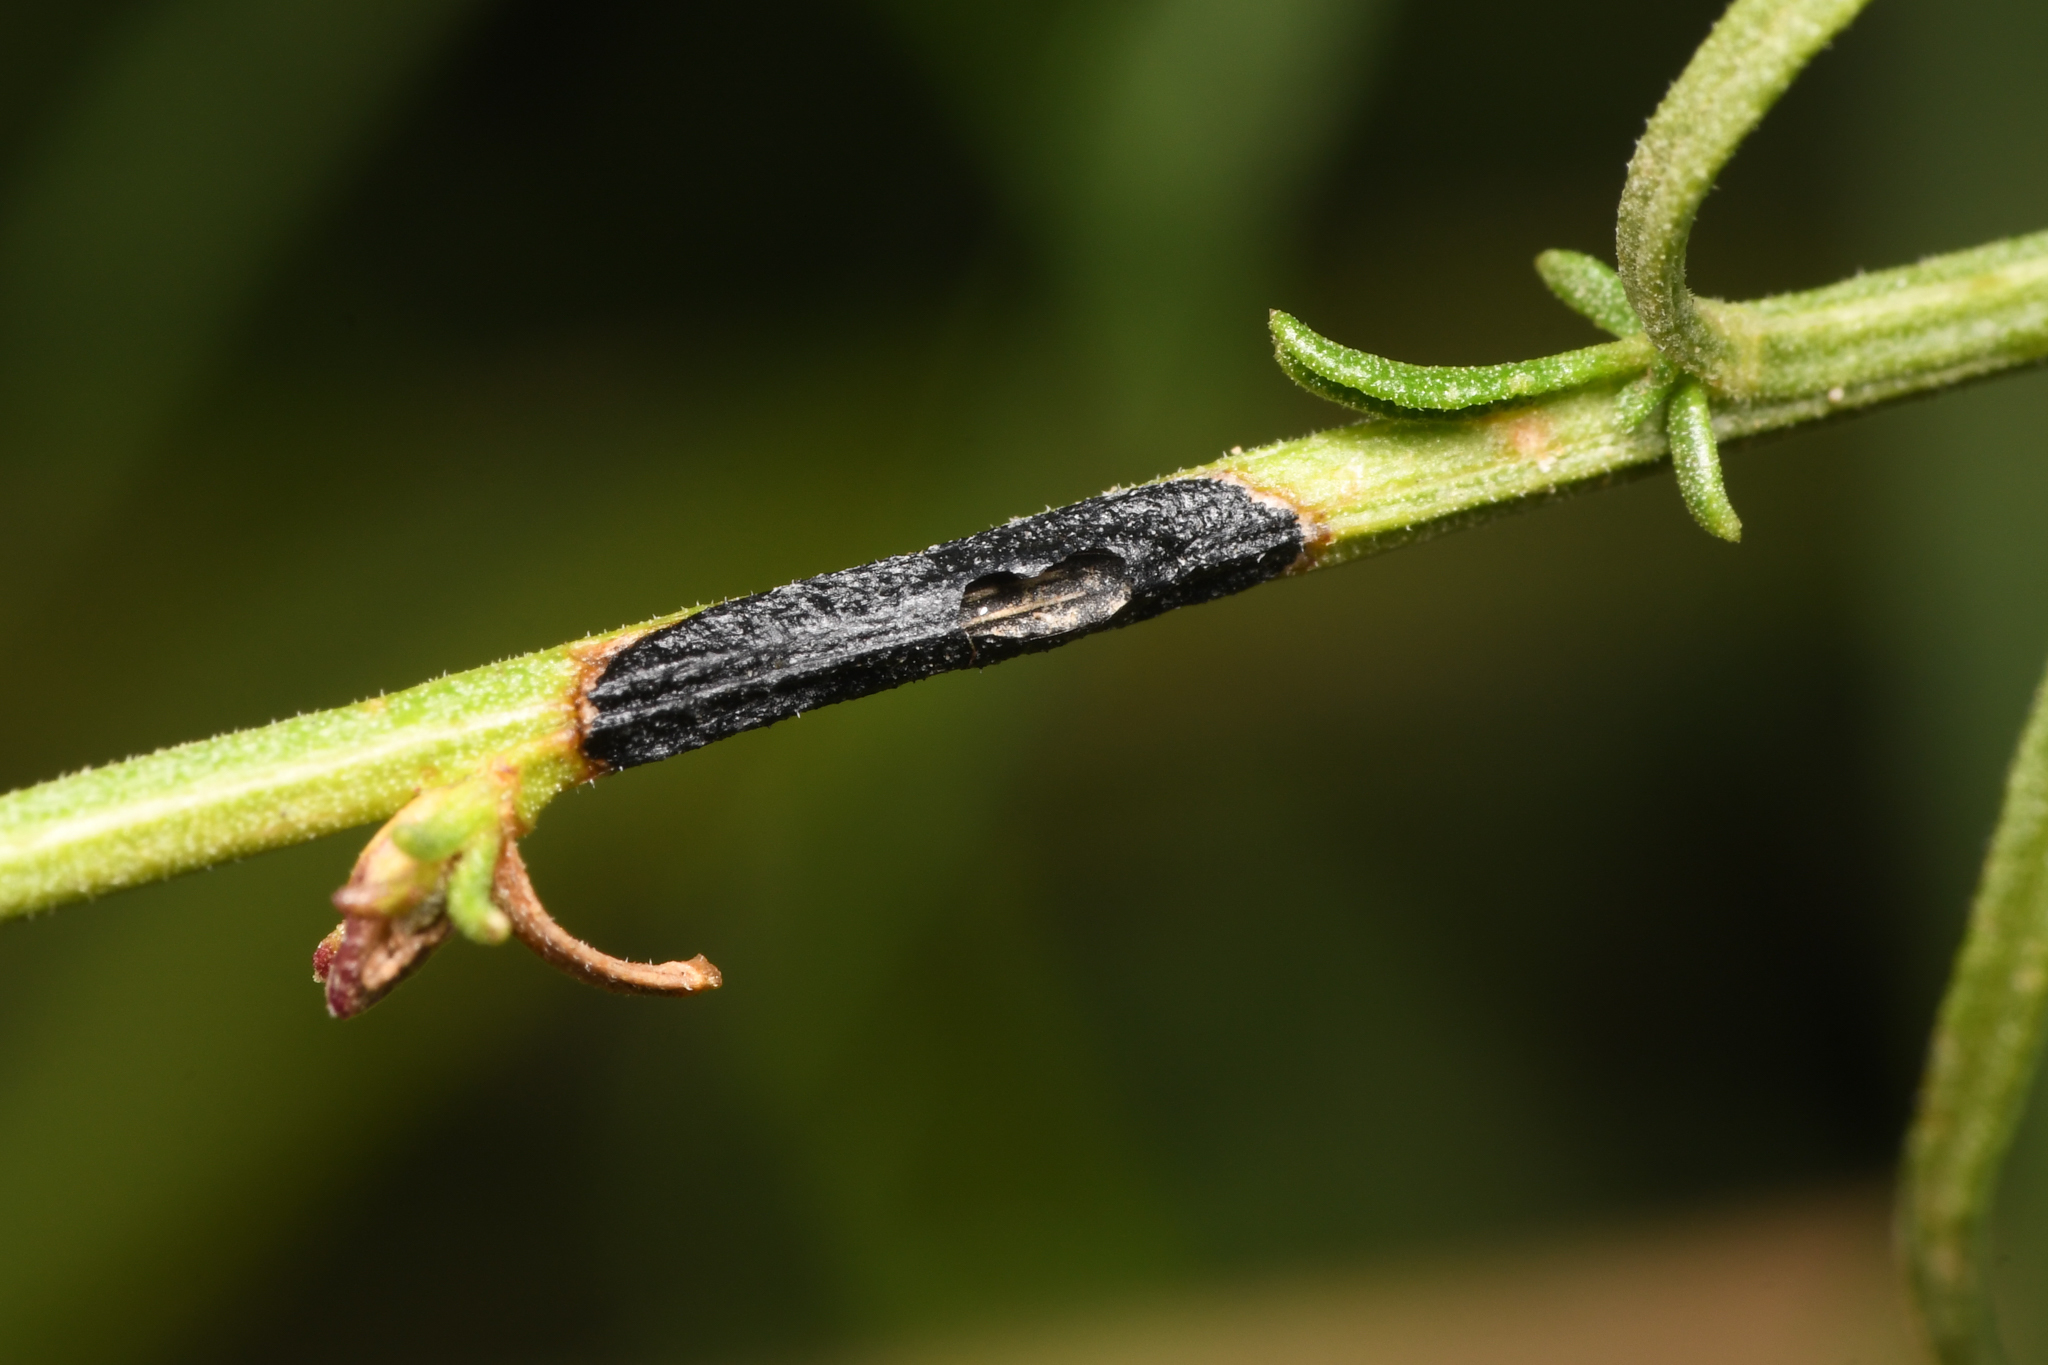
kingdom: Animalia
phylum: Arthropoda
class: Insecta
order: Diptera
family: Cecidomyiidae
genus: Asteromyia
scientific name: Asteromyia gutierreziae
